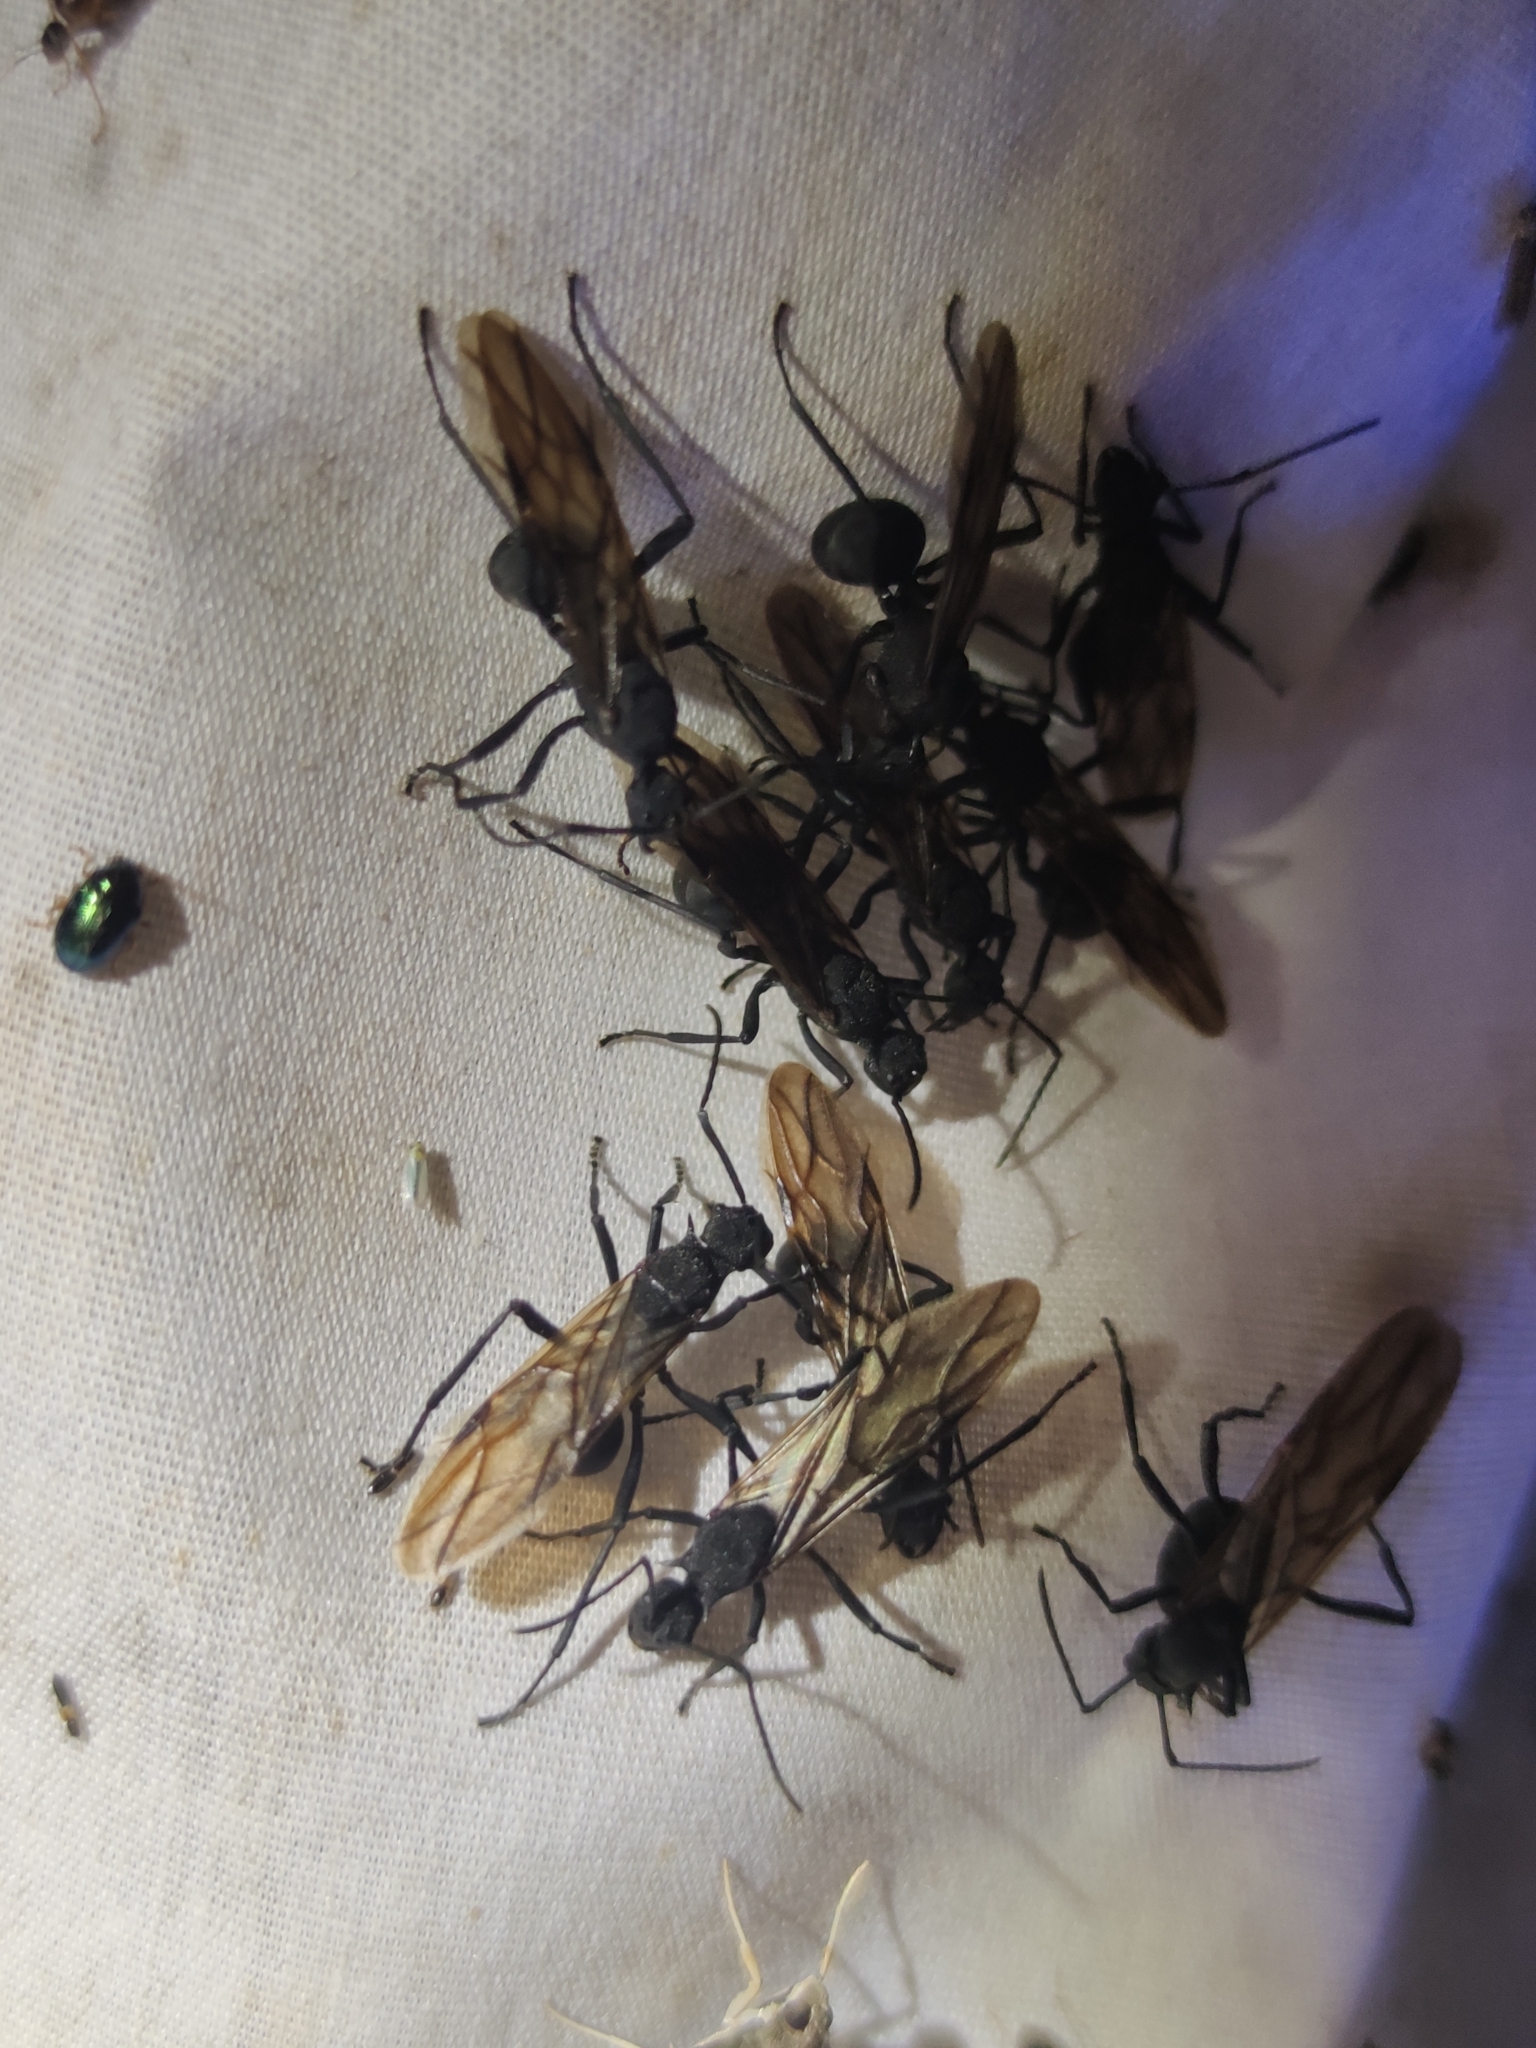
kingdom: Animalia
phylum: Arthropoda
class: Insecta
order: Hymenoptera
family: Formicidae
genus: Polyrhachis
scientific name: Polyrhachis armata
